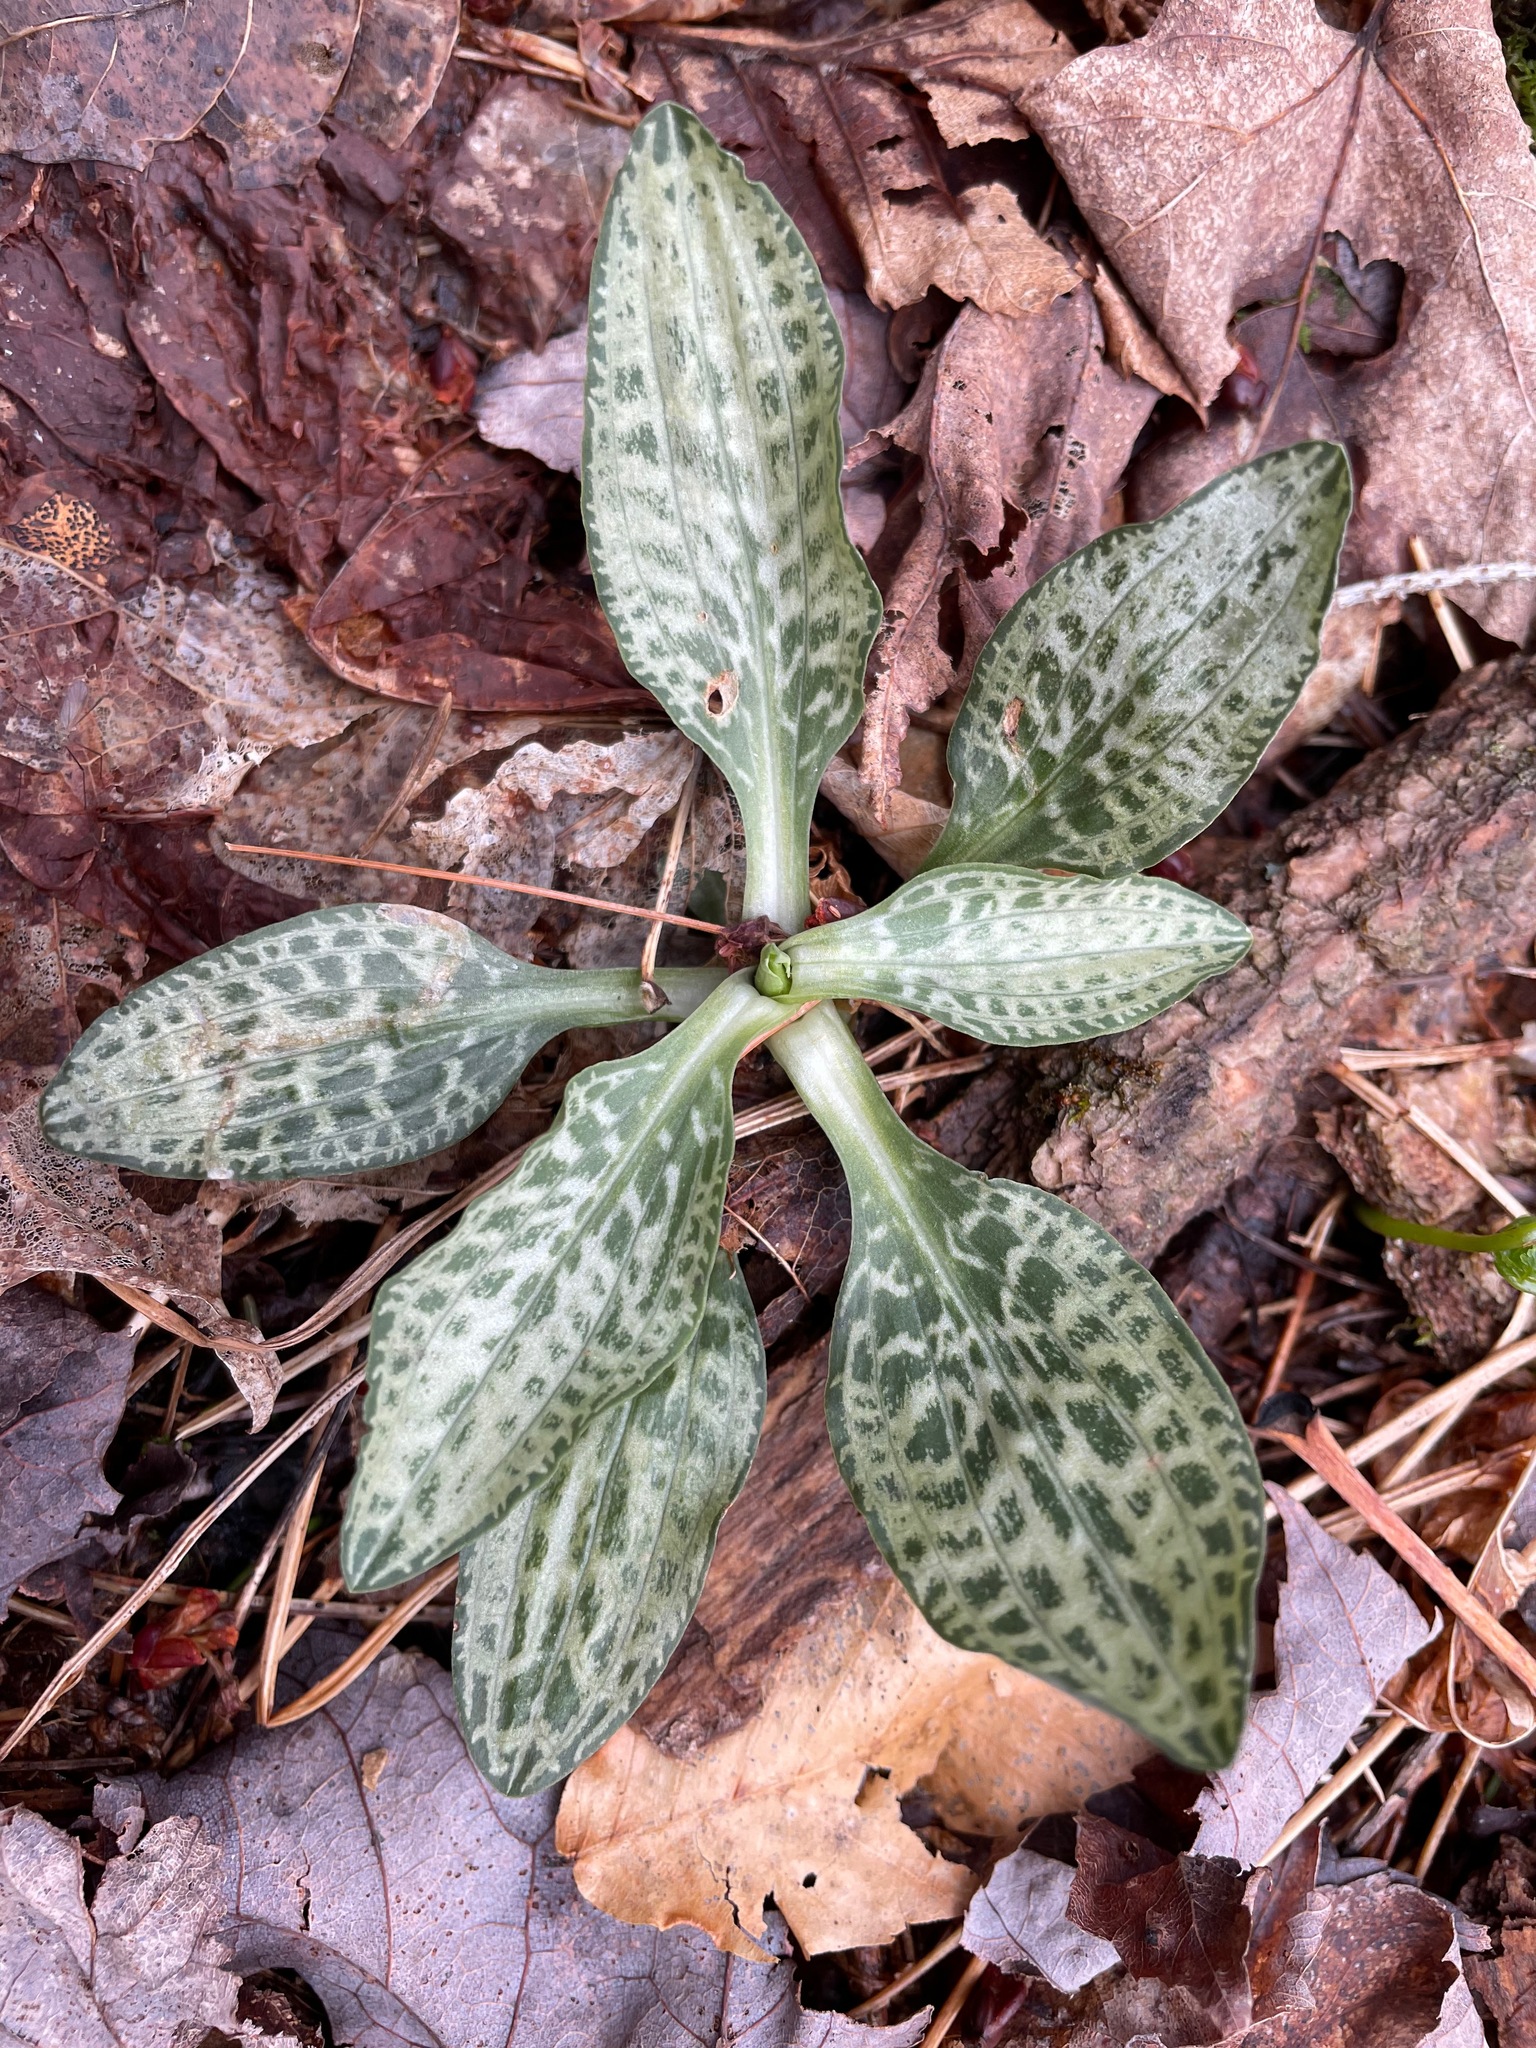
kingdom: Plantae
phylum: Tracheophyta
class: Liliopsida
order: Asparagales
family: Orchidaceae
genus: Goodyera
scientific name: Goodyera tesselata
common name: Checkered rattlesnake-plantain
